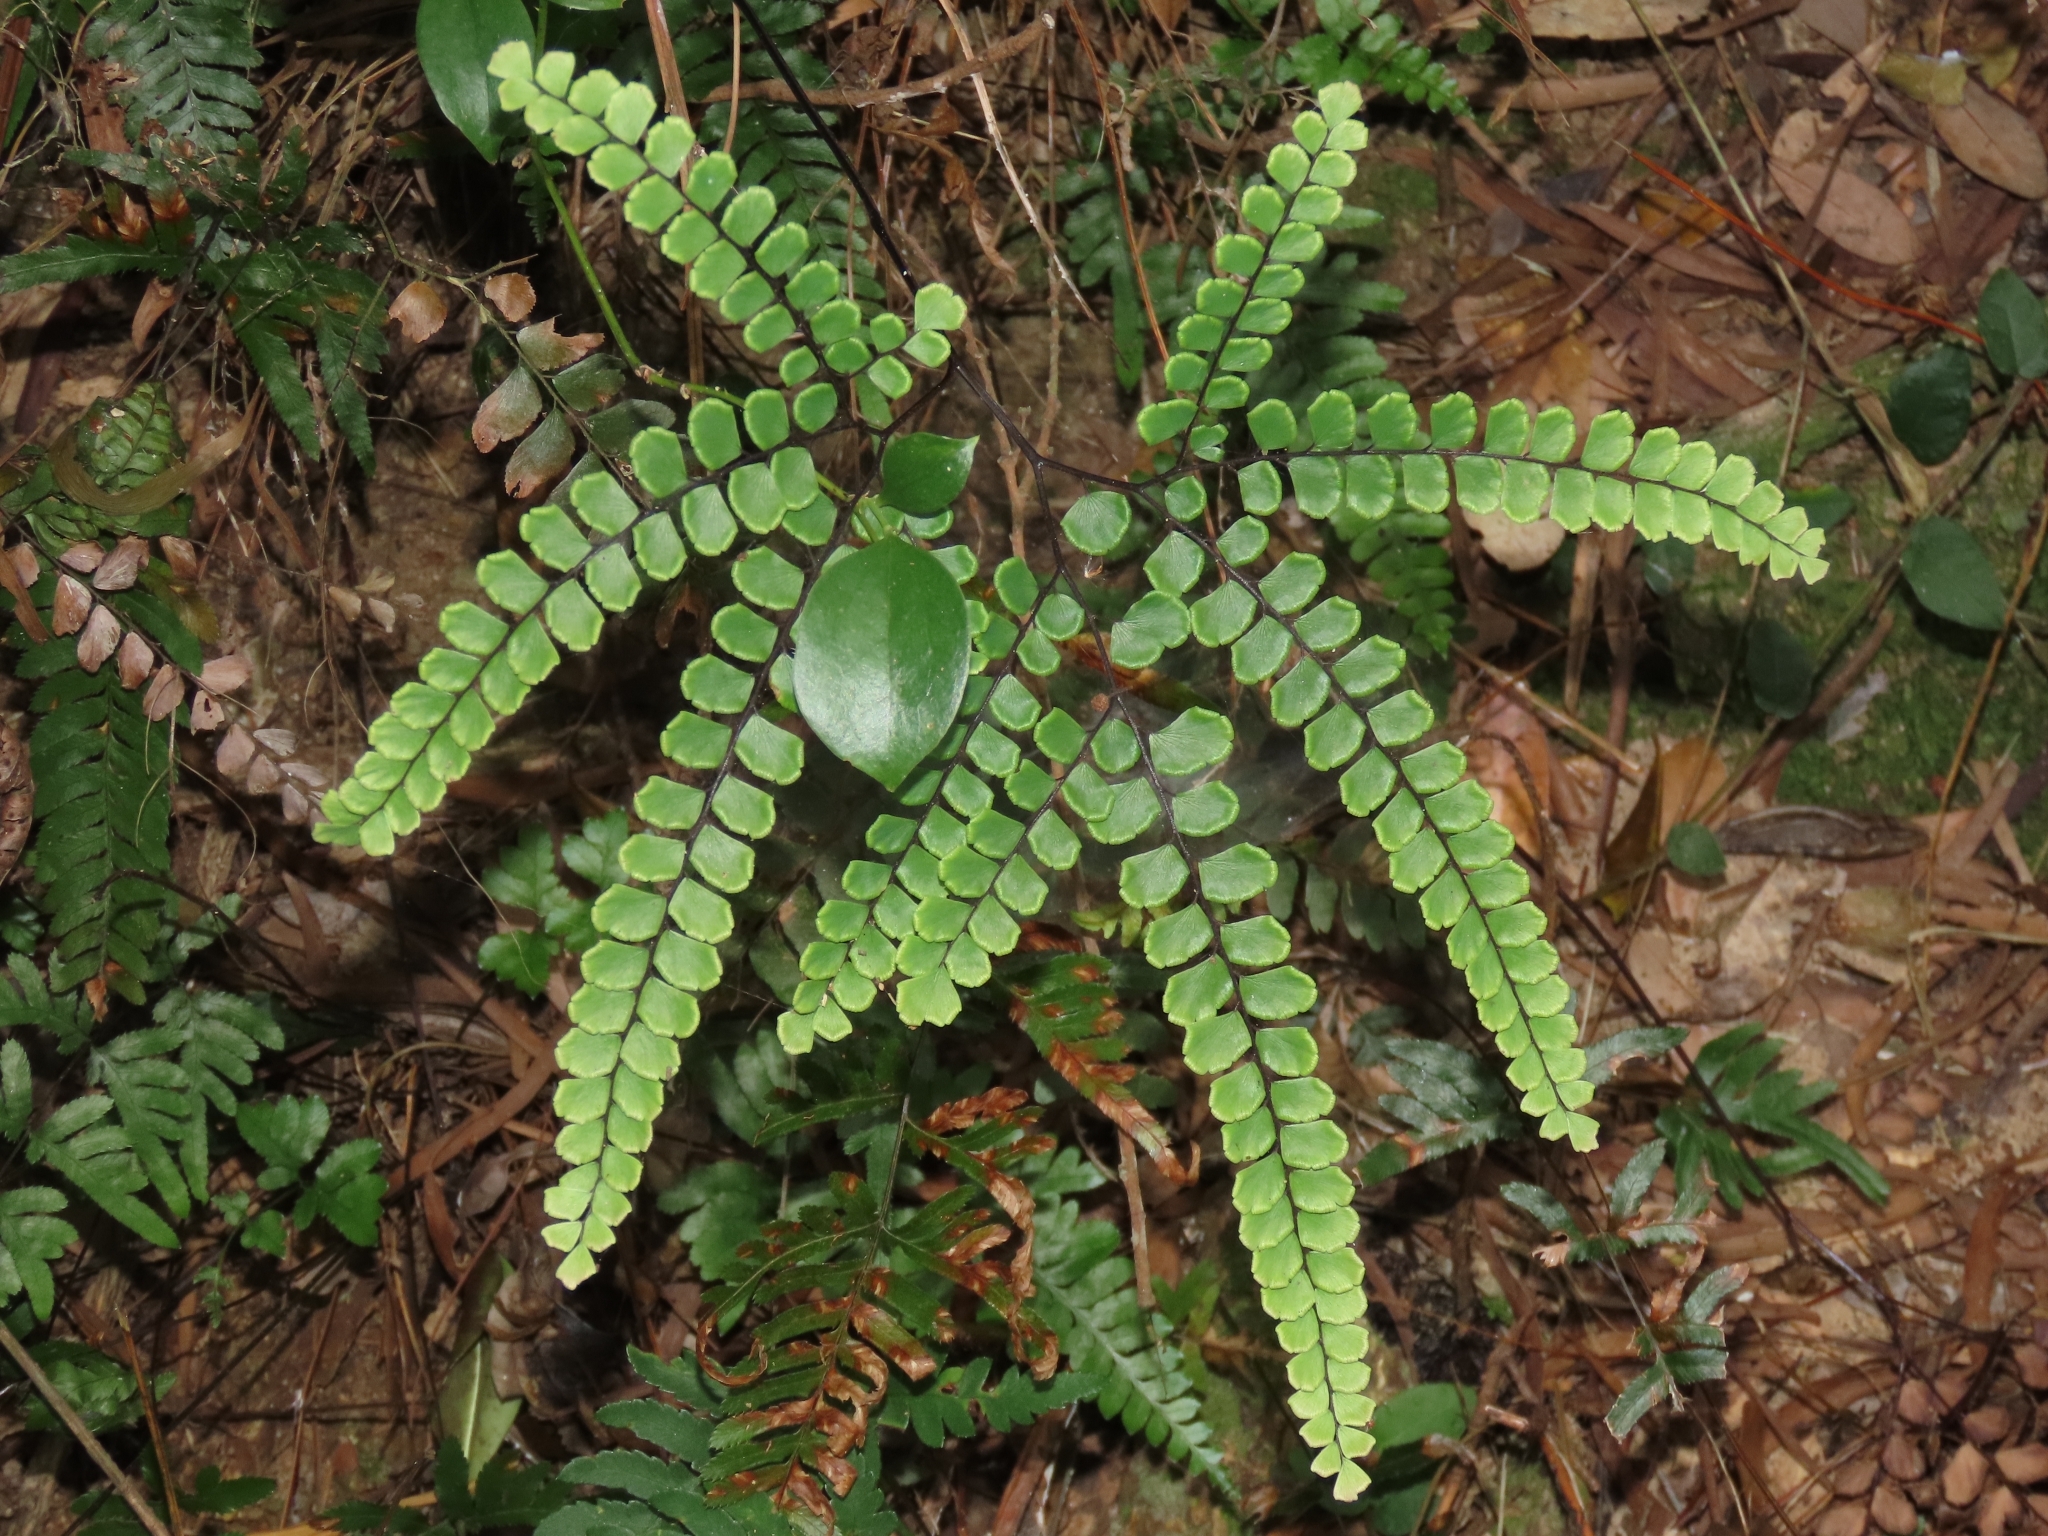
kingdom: Plantae
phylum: Tracheophyta
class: Polypodiopsida
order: Polypodiales
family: Pteridaceae
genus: Adiantum
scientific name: Adiantum flabellulatum
